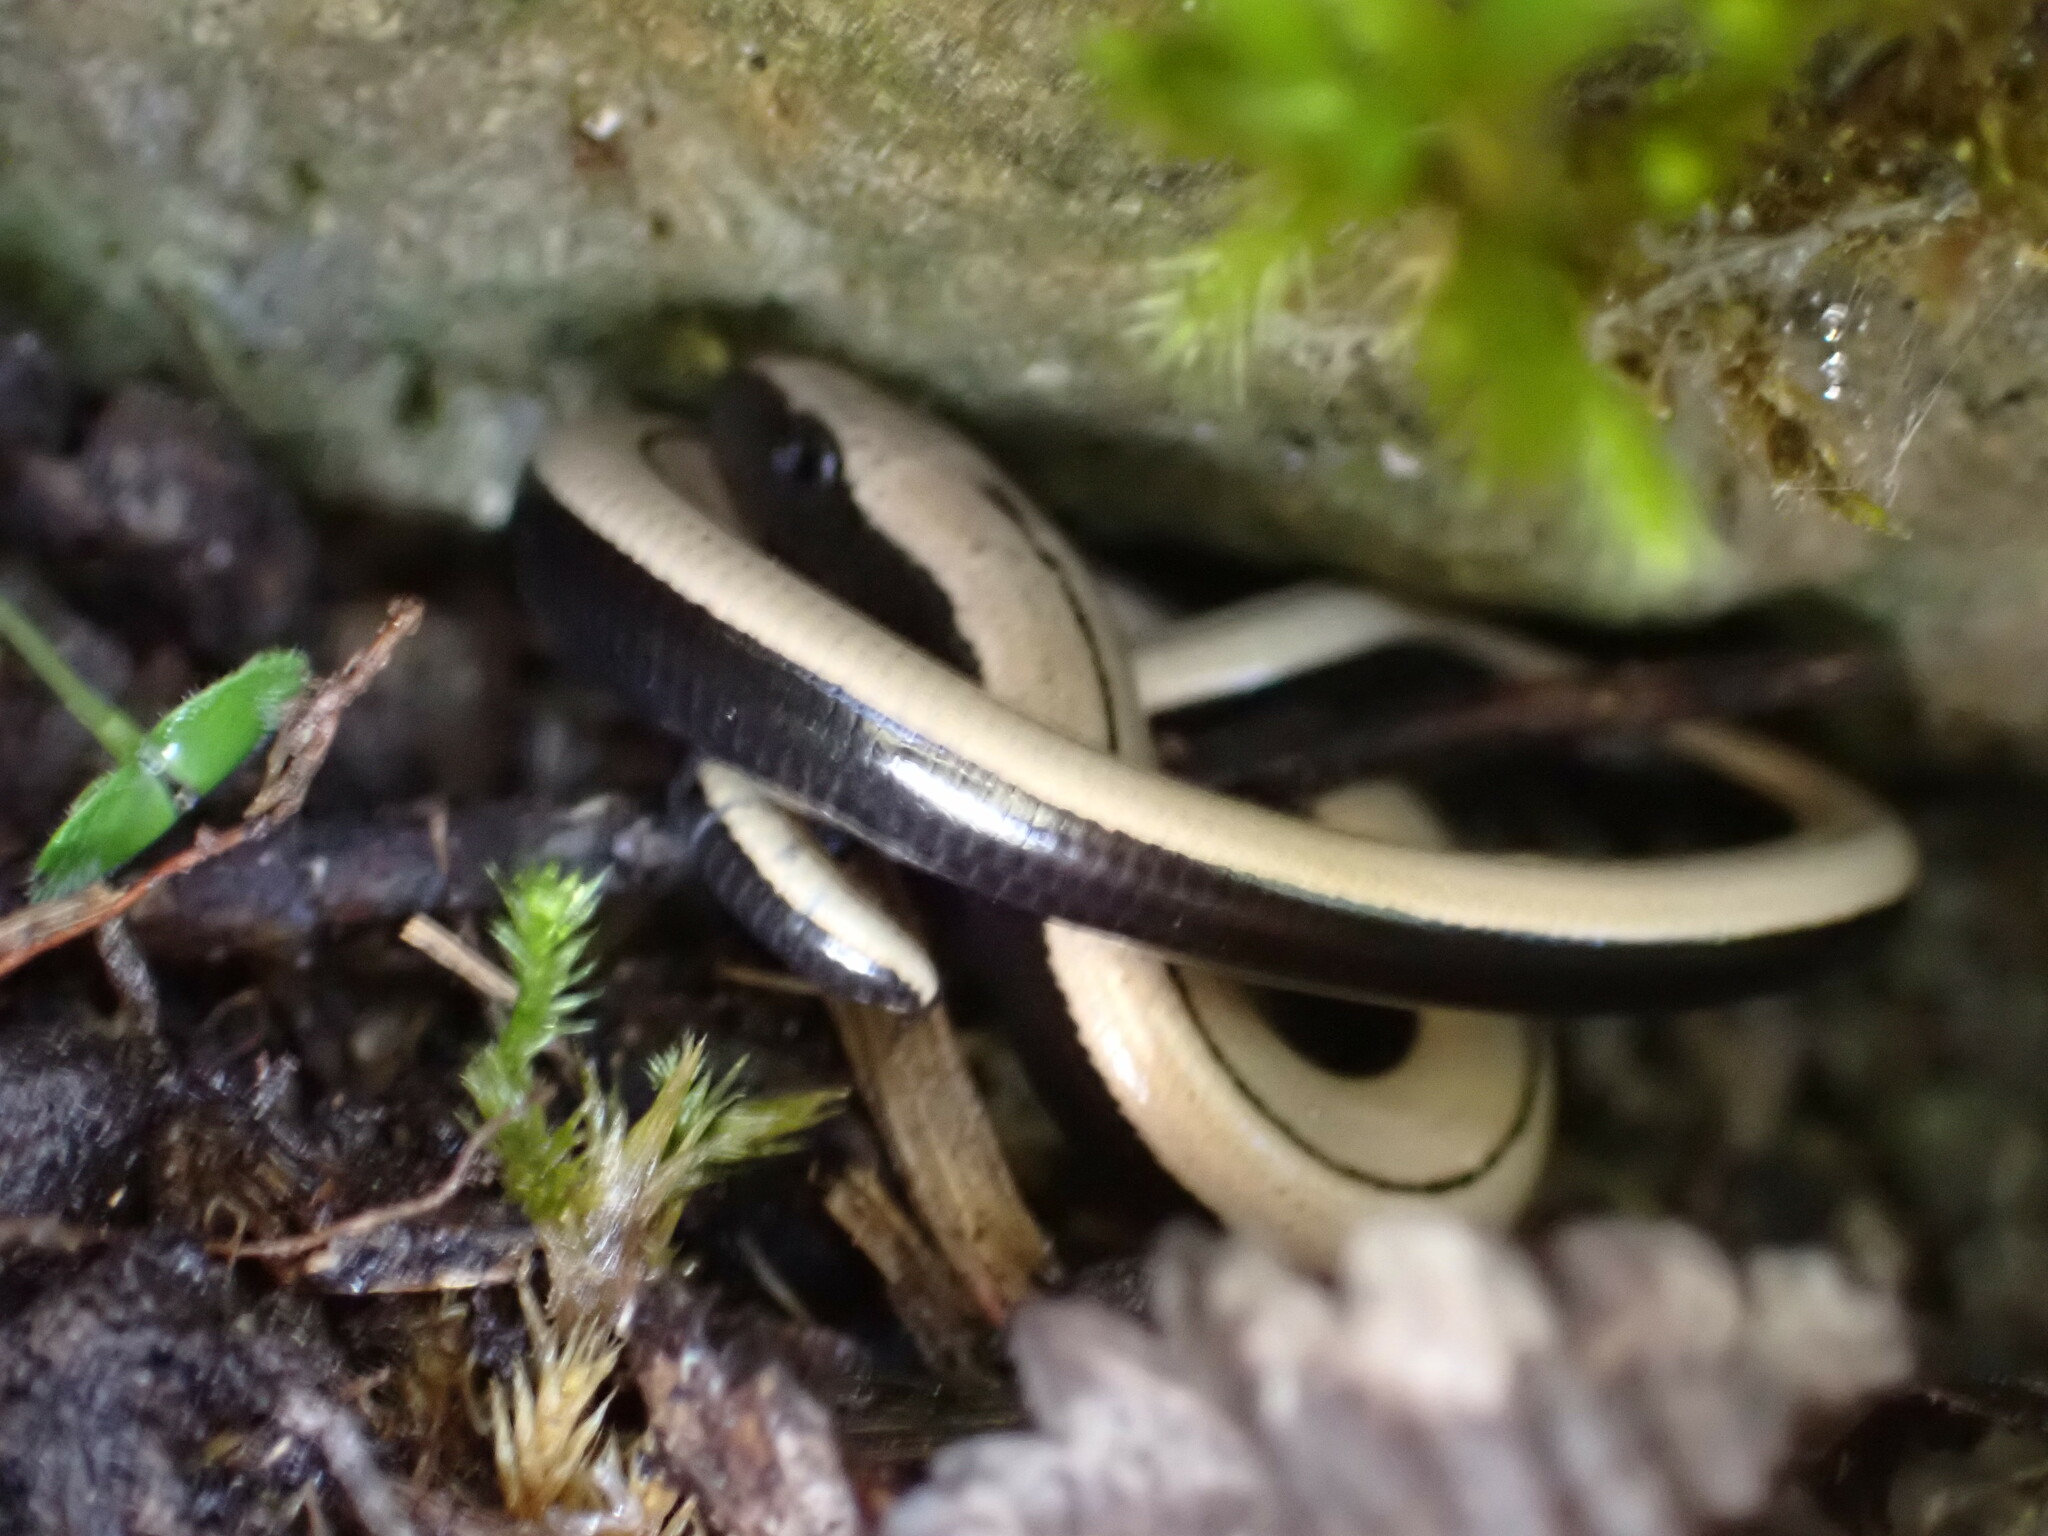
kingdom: Animalia
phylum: Chordata
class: Squamata
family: Anguidae
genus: Anguis
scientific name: Anguis veronensis
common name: Italian slow worm
